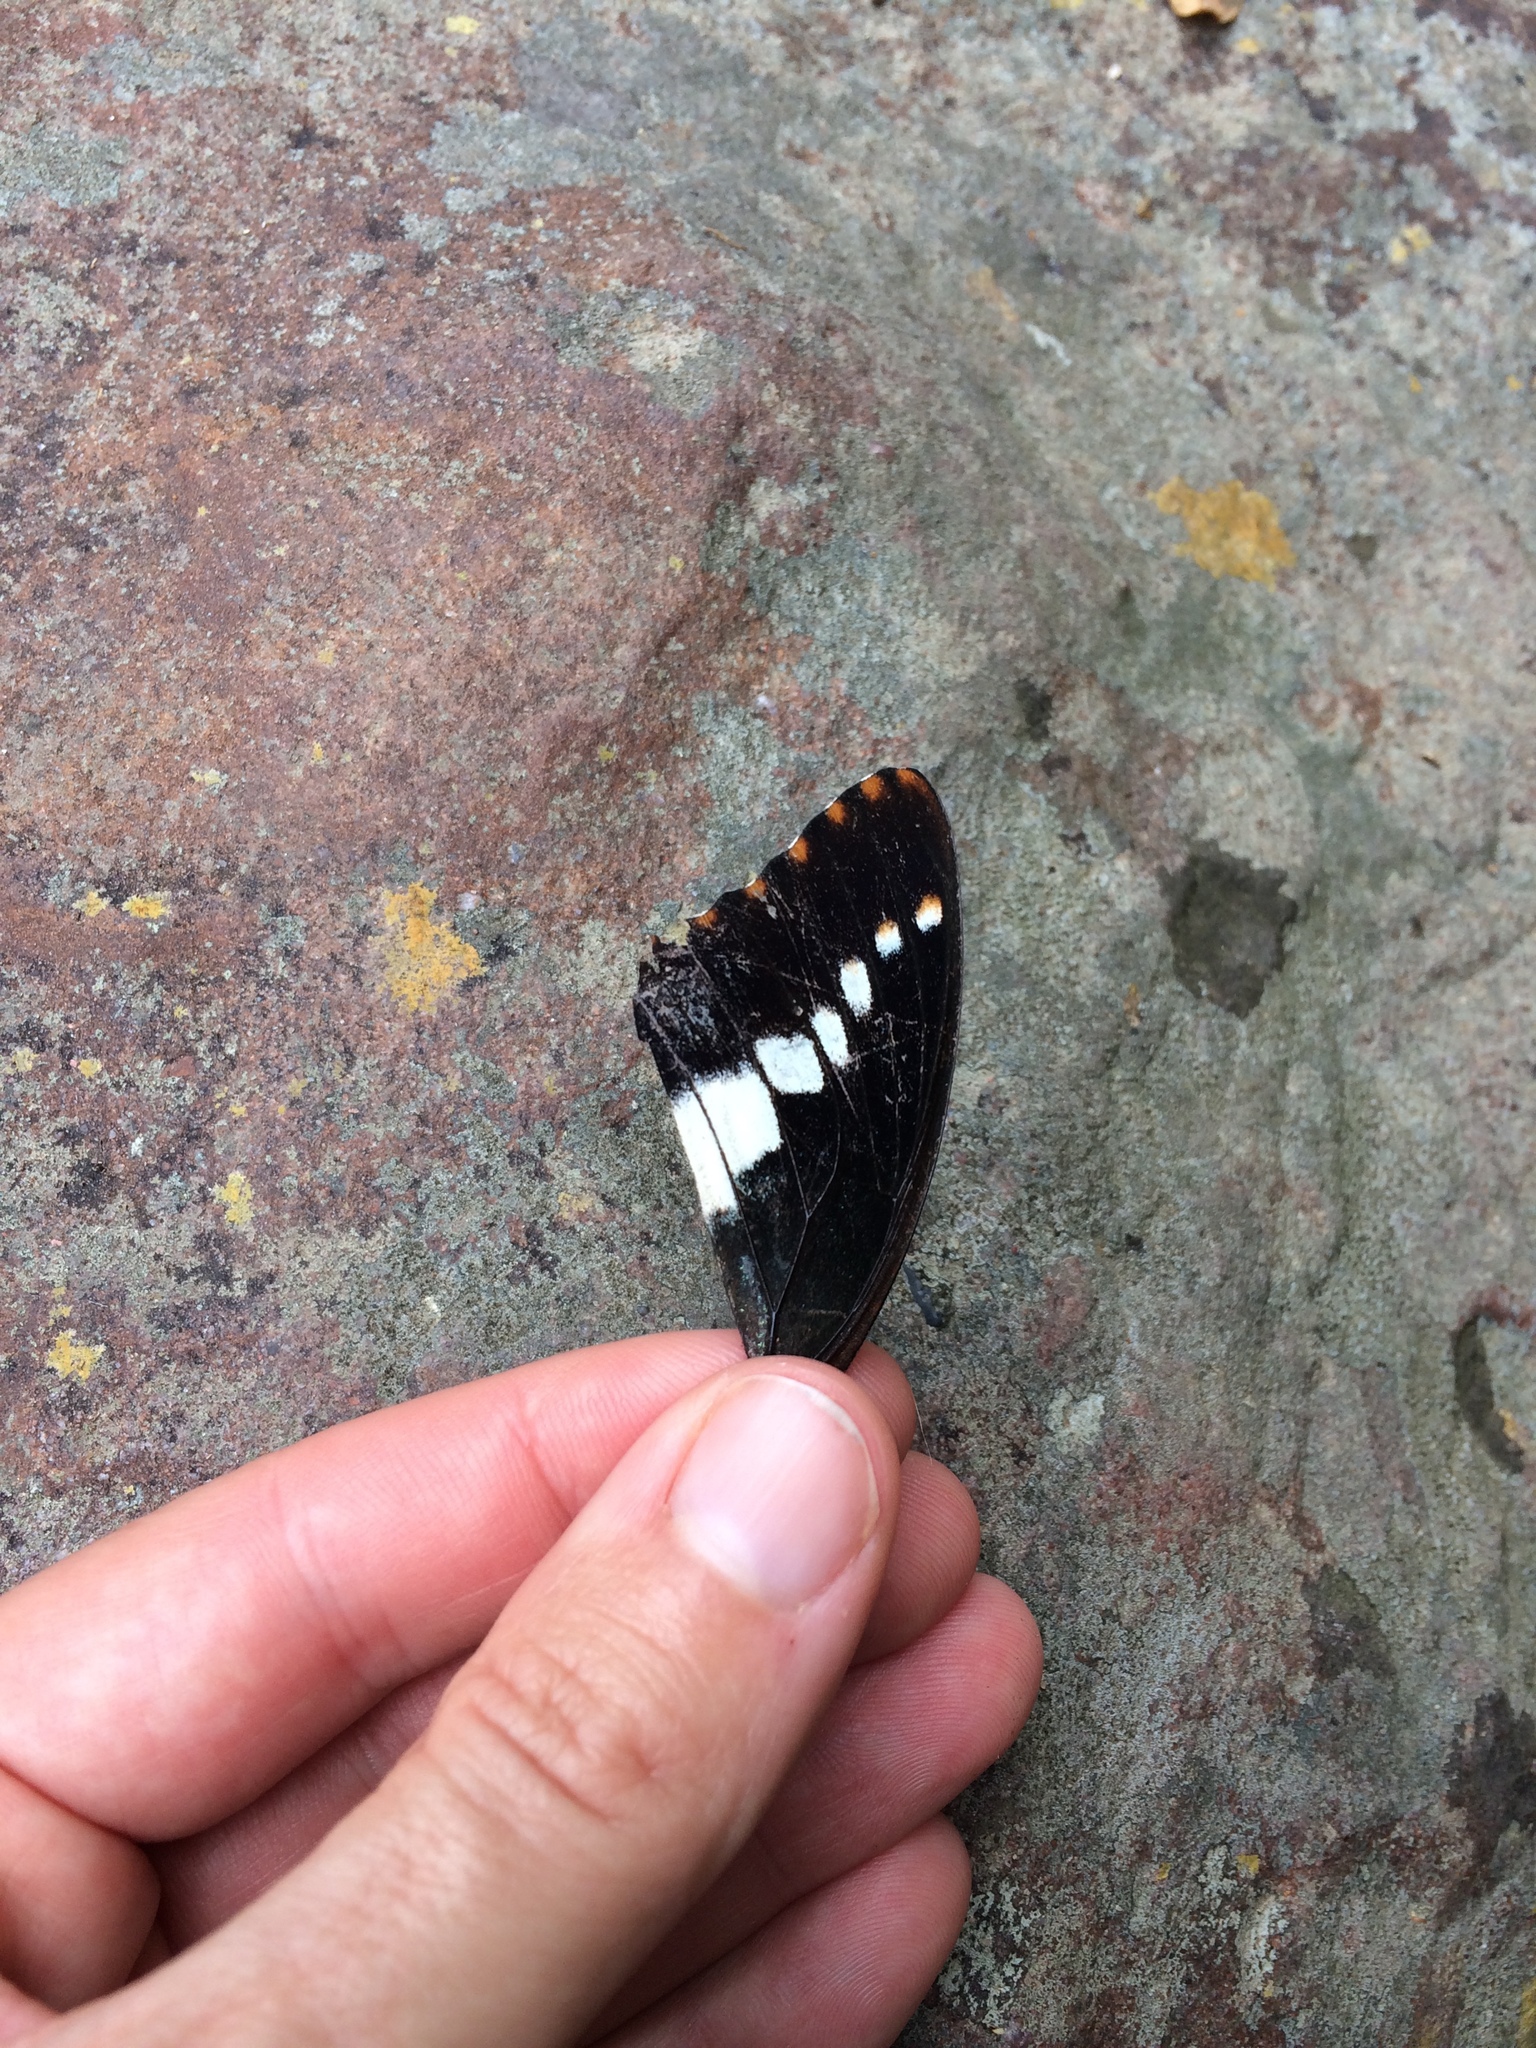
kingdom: Animalia
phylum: Arthropoda
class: Insecta
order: Lepidoptera
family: Nymphalidae
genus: Charaxes
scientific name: Charaxes brutus
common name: White-barred charaxes
